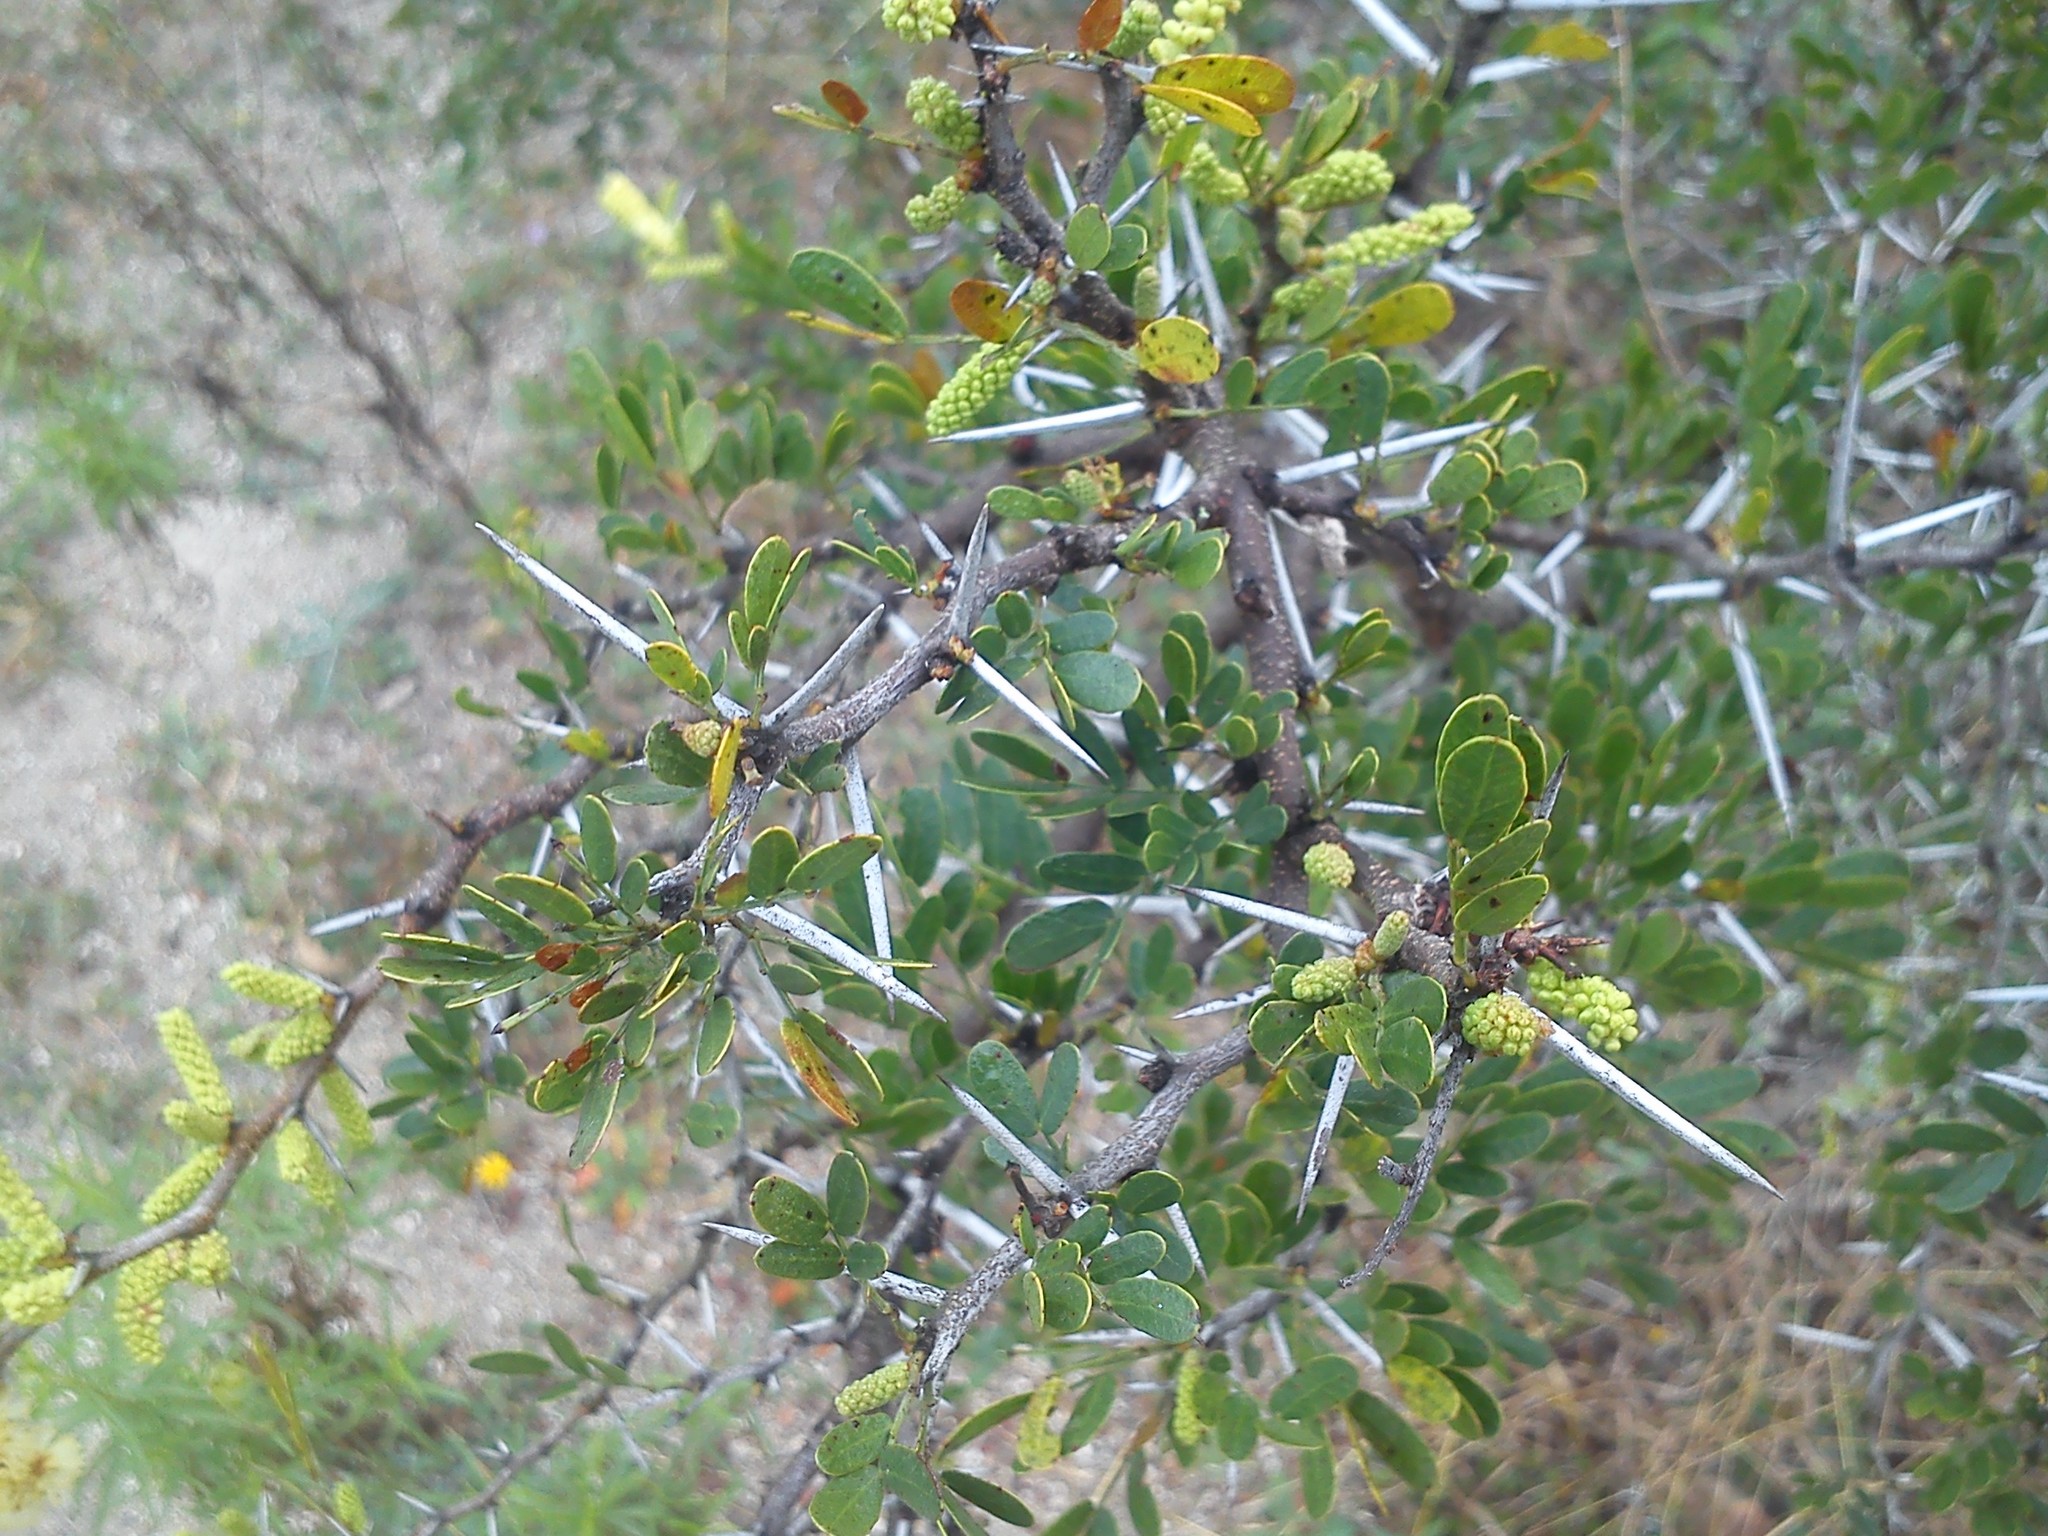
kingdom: Plantae
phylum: Tracheophyta
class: Magnoliopsida
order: Fabales
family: Fabaceae
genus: Vachellia
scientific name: Vachellia rigidula
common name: Blackbrush
